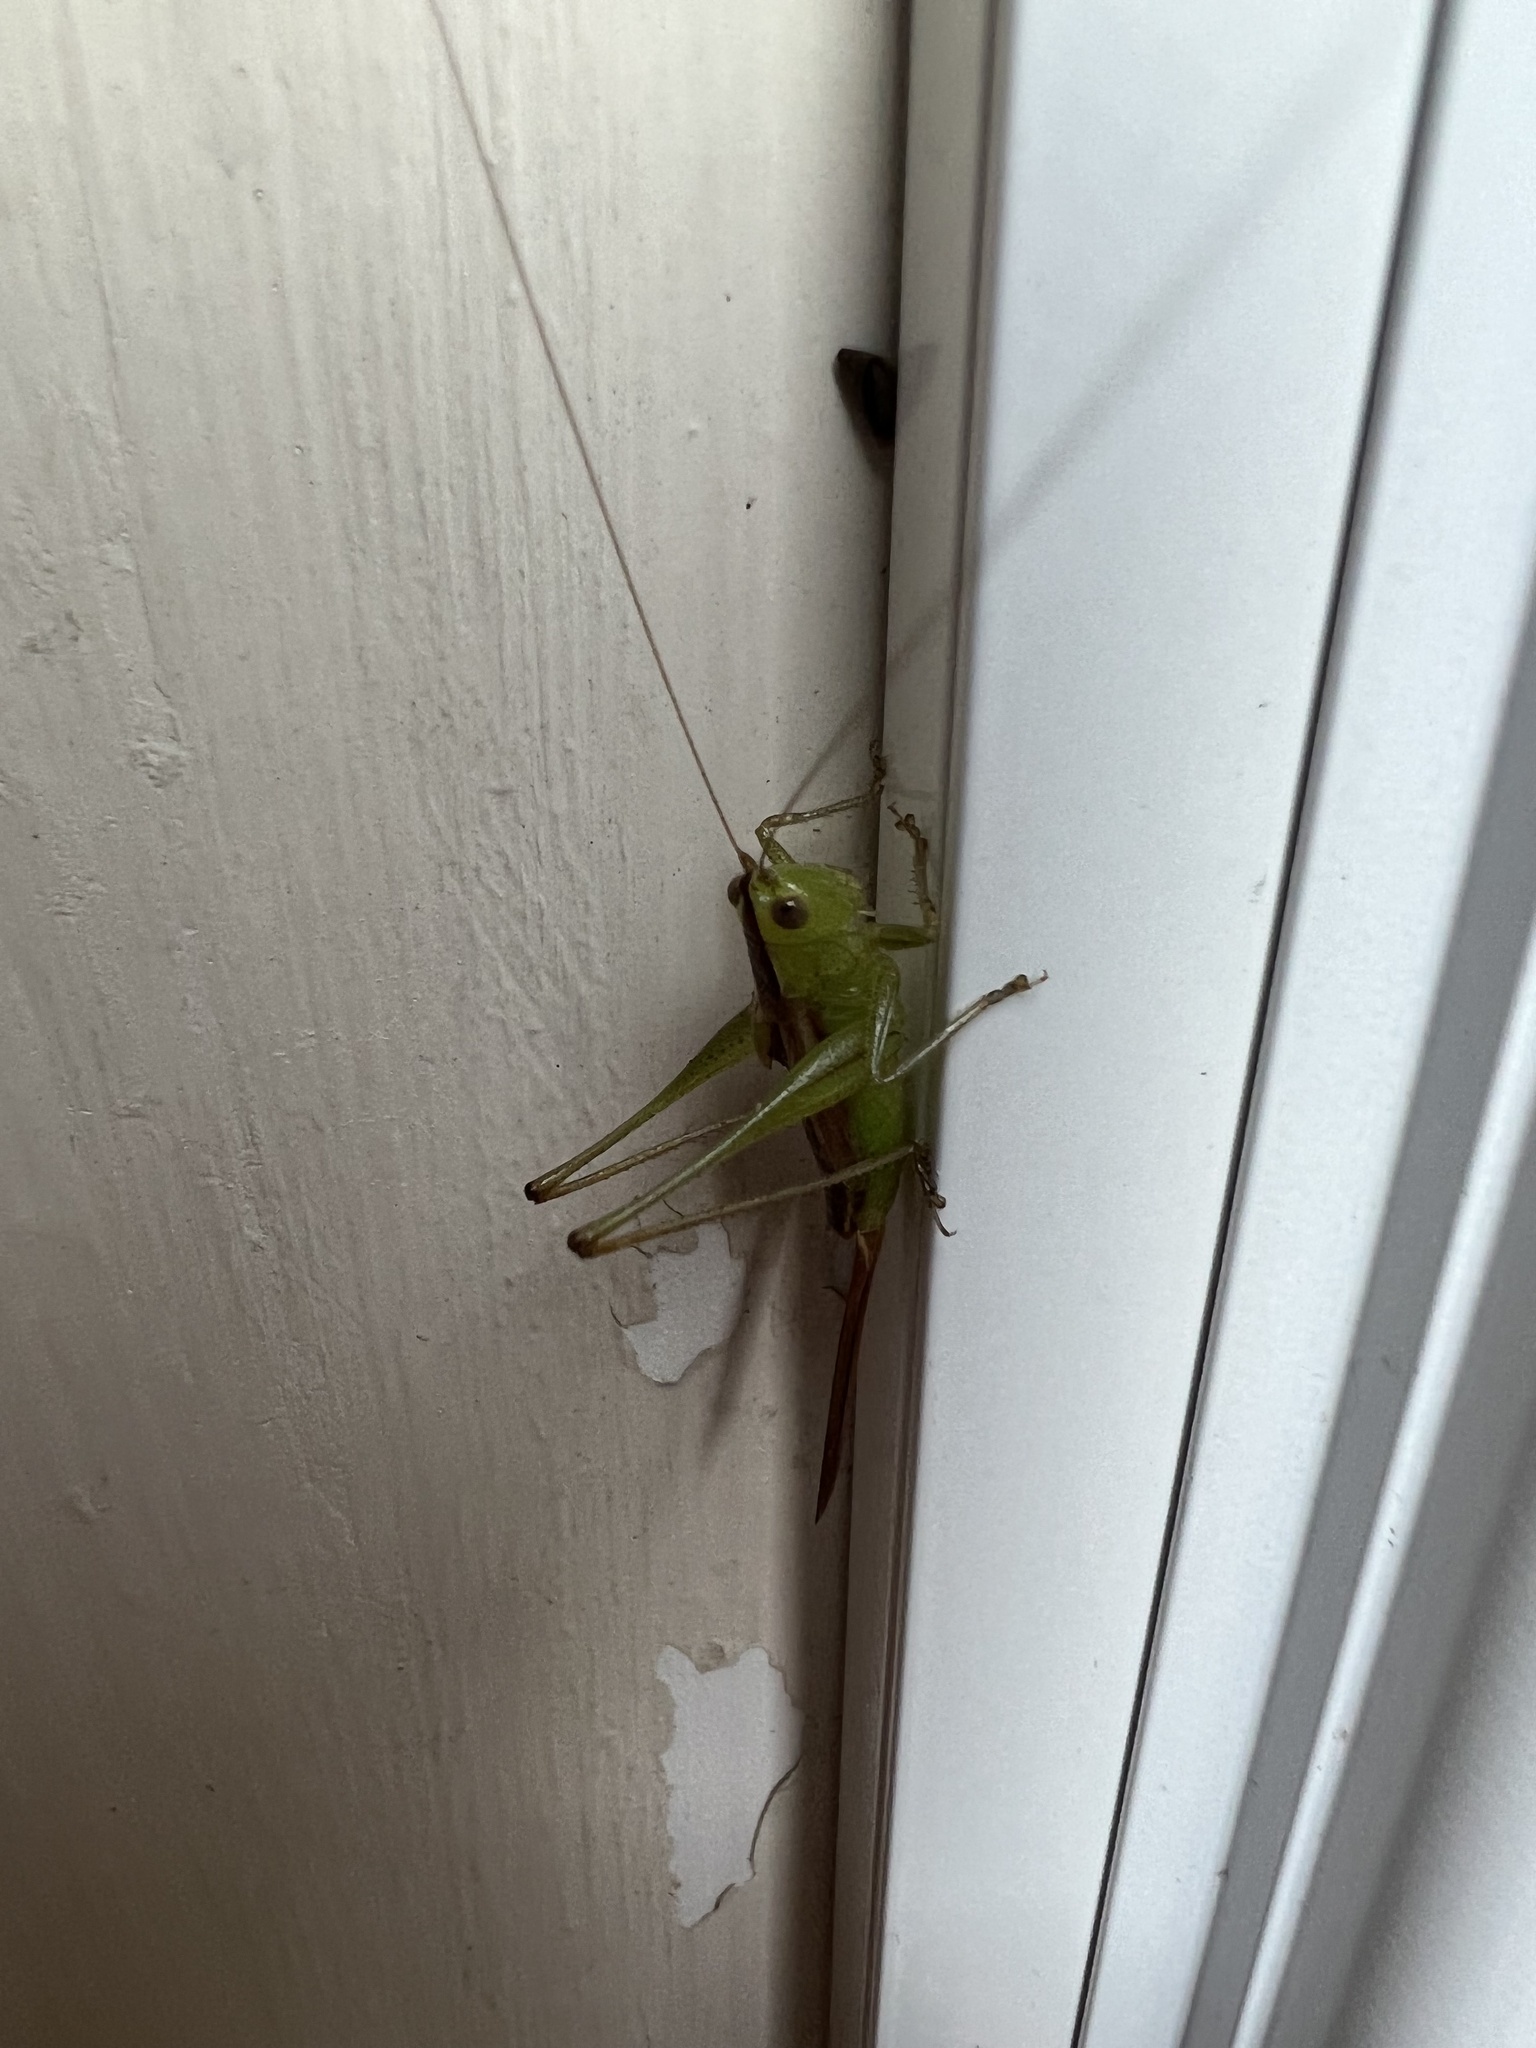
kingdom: Animalia
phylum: Arthropoda
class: Insecta
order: Orthoptera
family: Tettigoniidae
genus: Conocephalus
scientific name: Conocephalus brevipennis
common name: Short-winged meadow katydid
